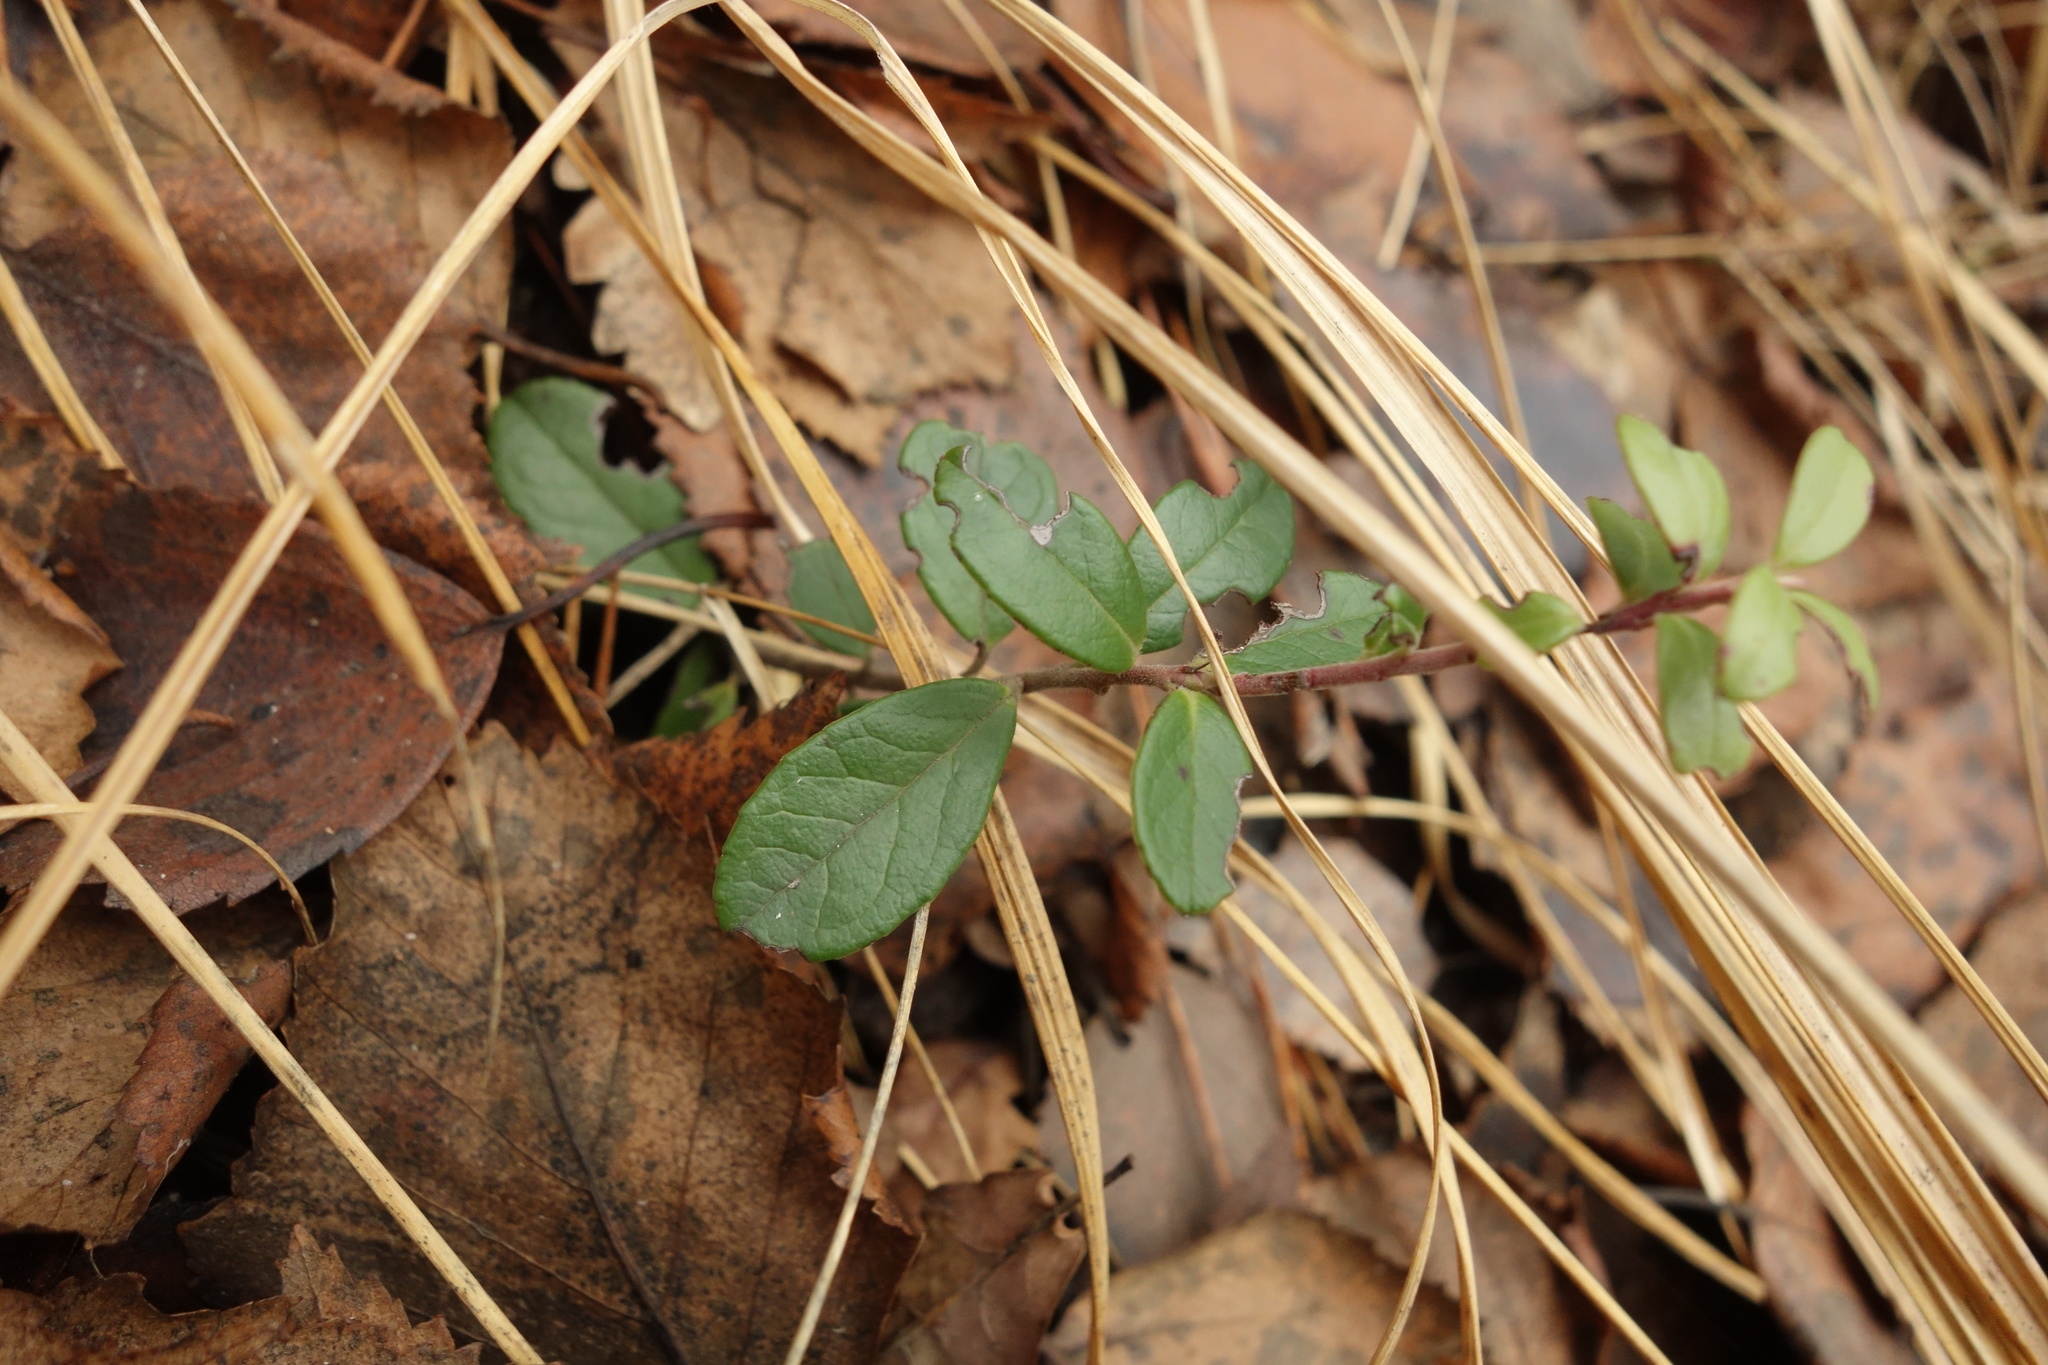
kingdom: Plantae
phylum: Tracheophyta
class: Magnoliopsida
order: Ericales
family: Ericaceae
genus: Vaccinium
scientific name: Vaccinium vitis-idaea
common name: Cowberry
